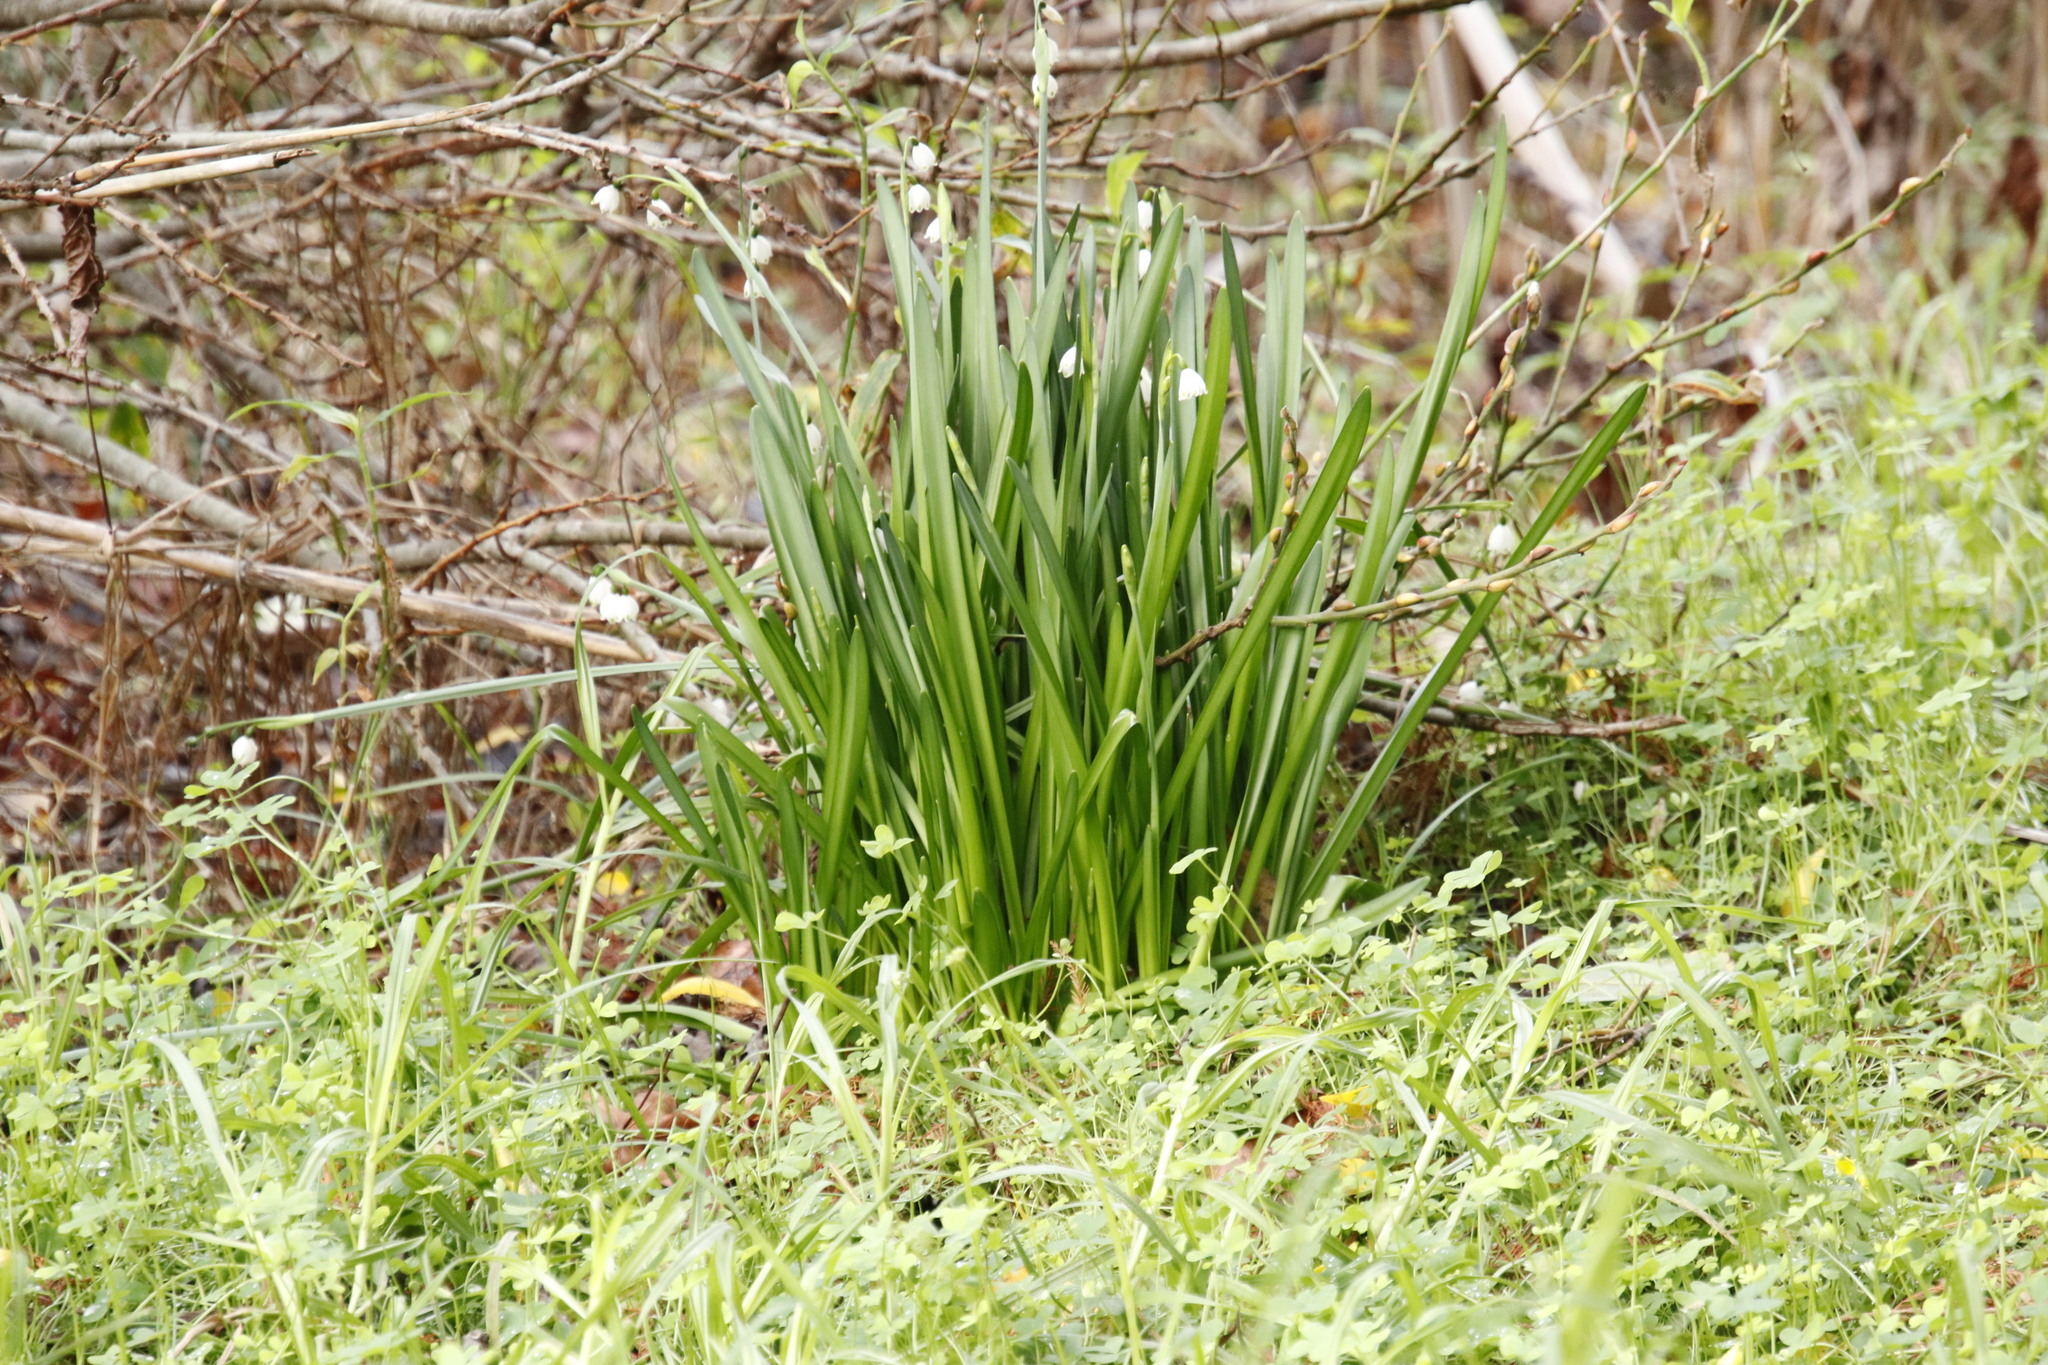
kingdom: Plantae
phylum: Tracheophyta
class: Liliopsida
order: Asparagales
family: Amaryllidaceae
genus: Leucojum
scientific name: Leucojum aestivum
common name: Summer snowflake
